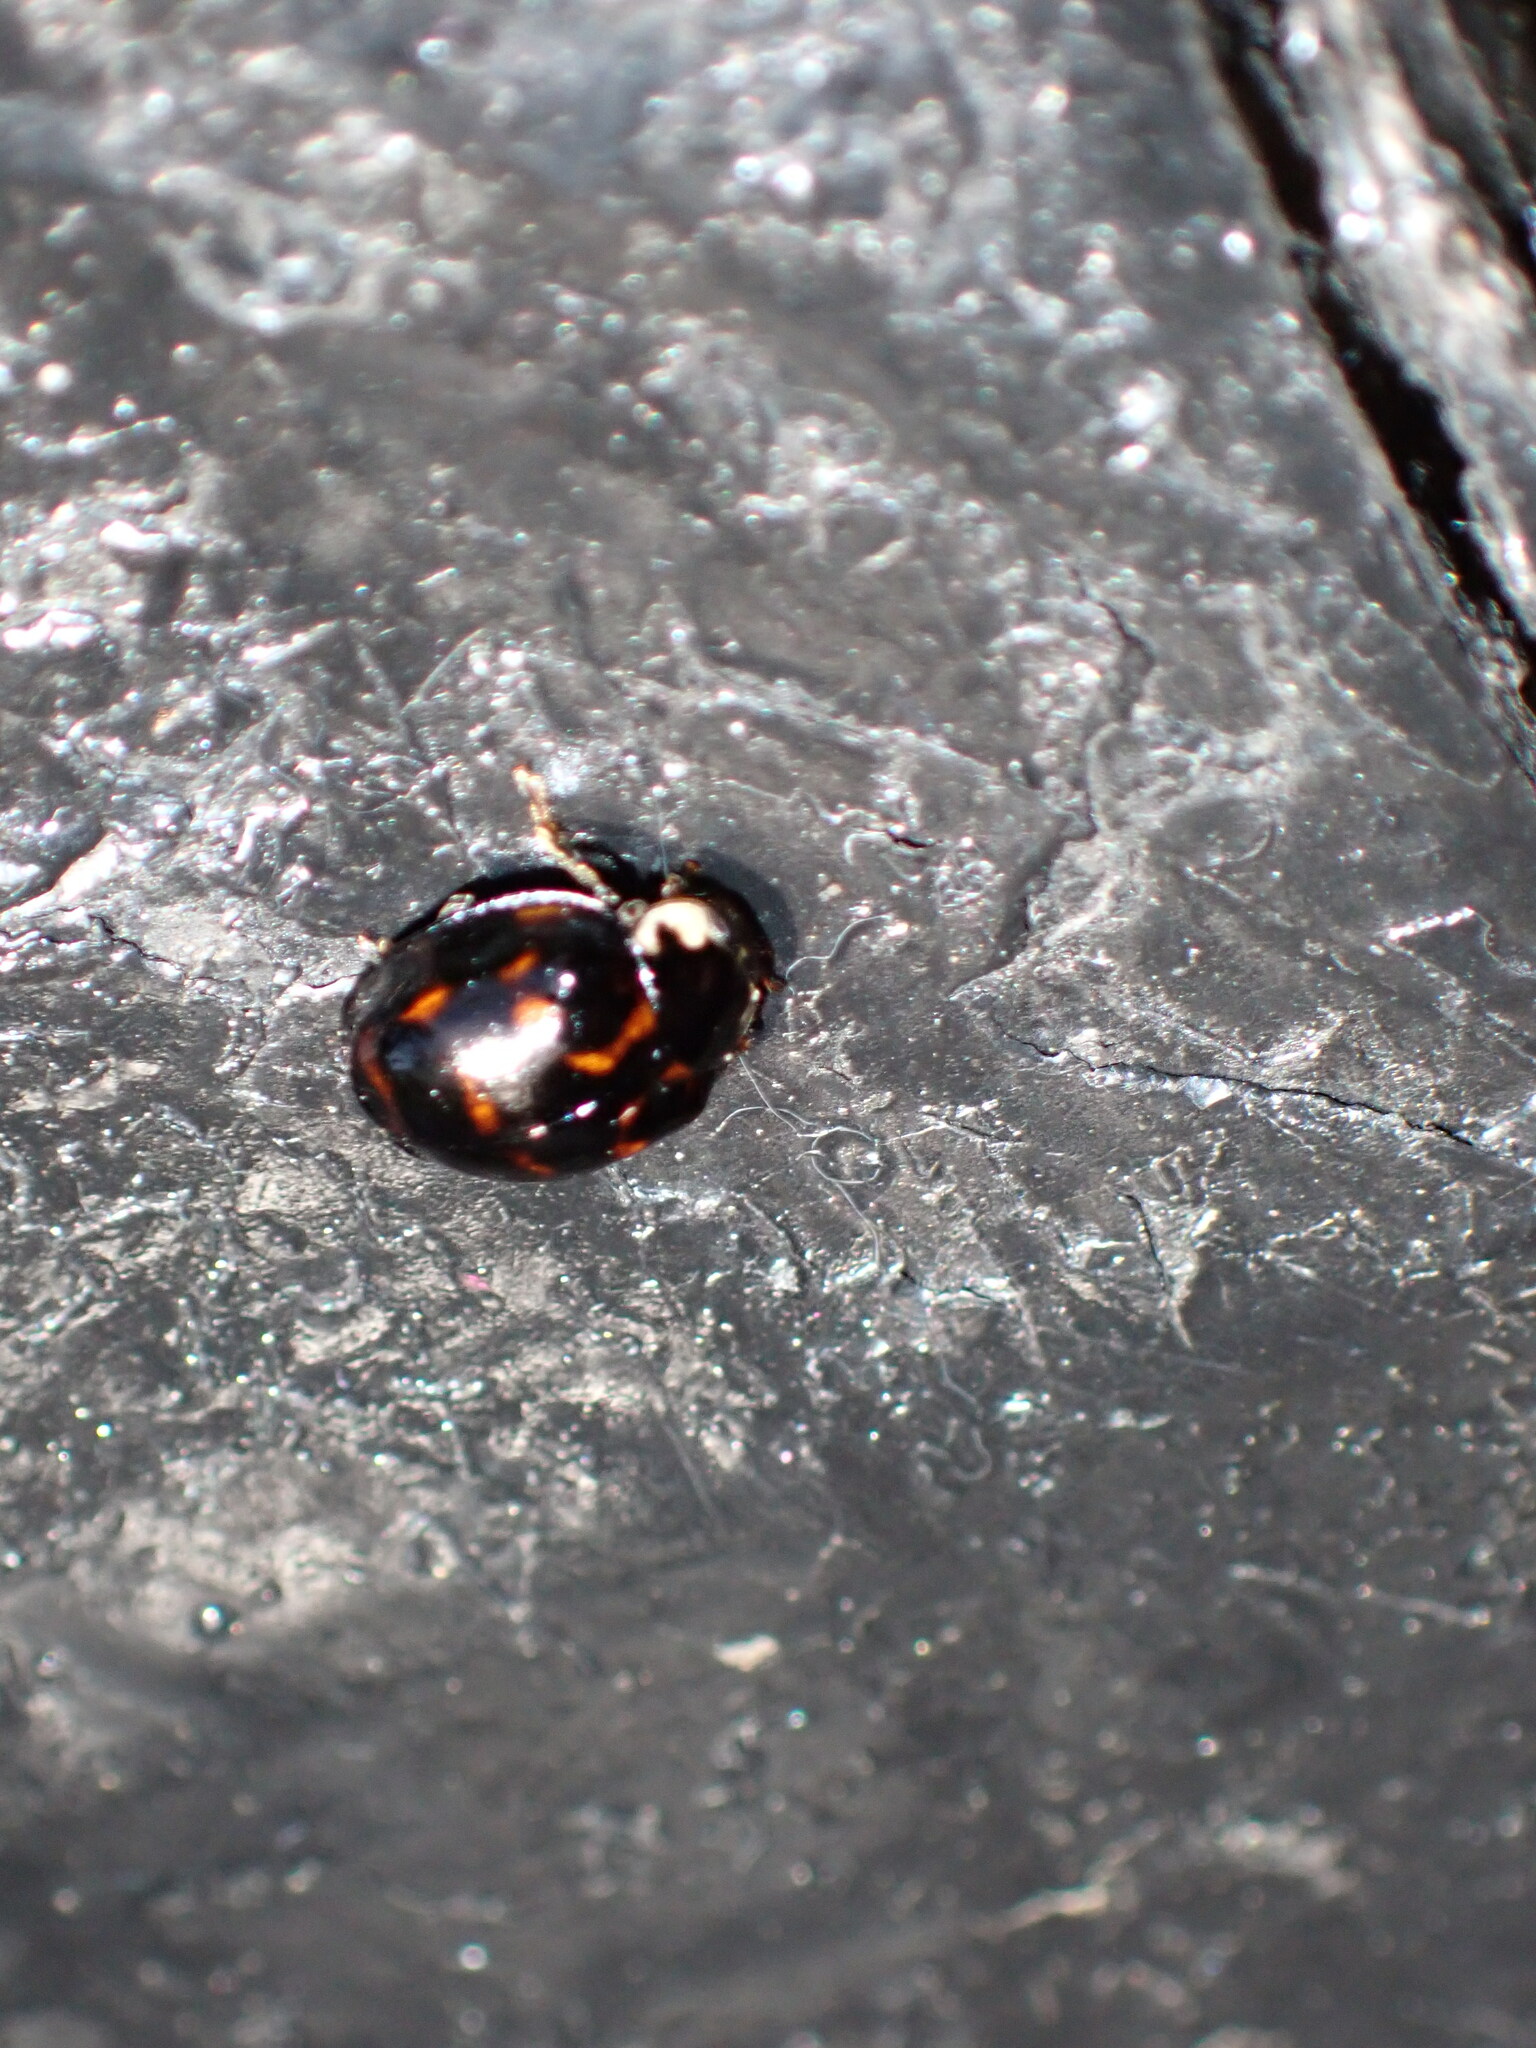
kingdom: Animalia
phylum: Arthropoda
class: Insecta
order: Coleoptera
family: Coccinellidae
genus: Harmonia
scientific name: Harmonia axyridis
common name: Harlequin ladybird
